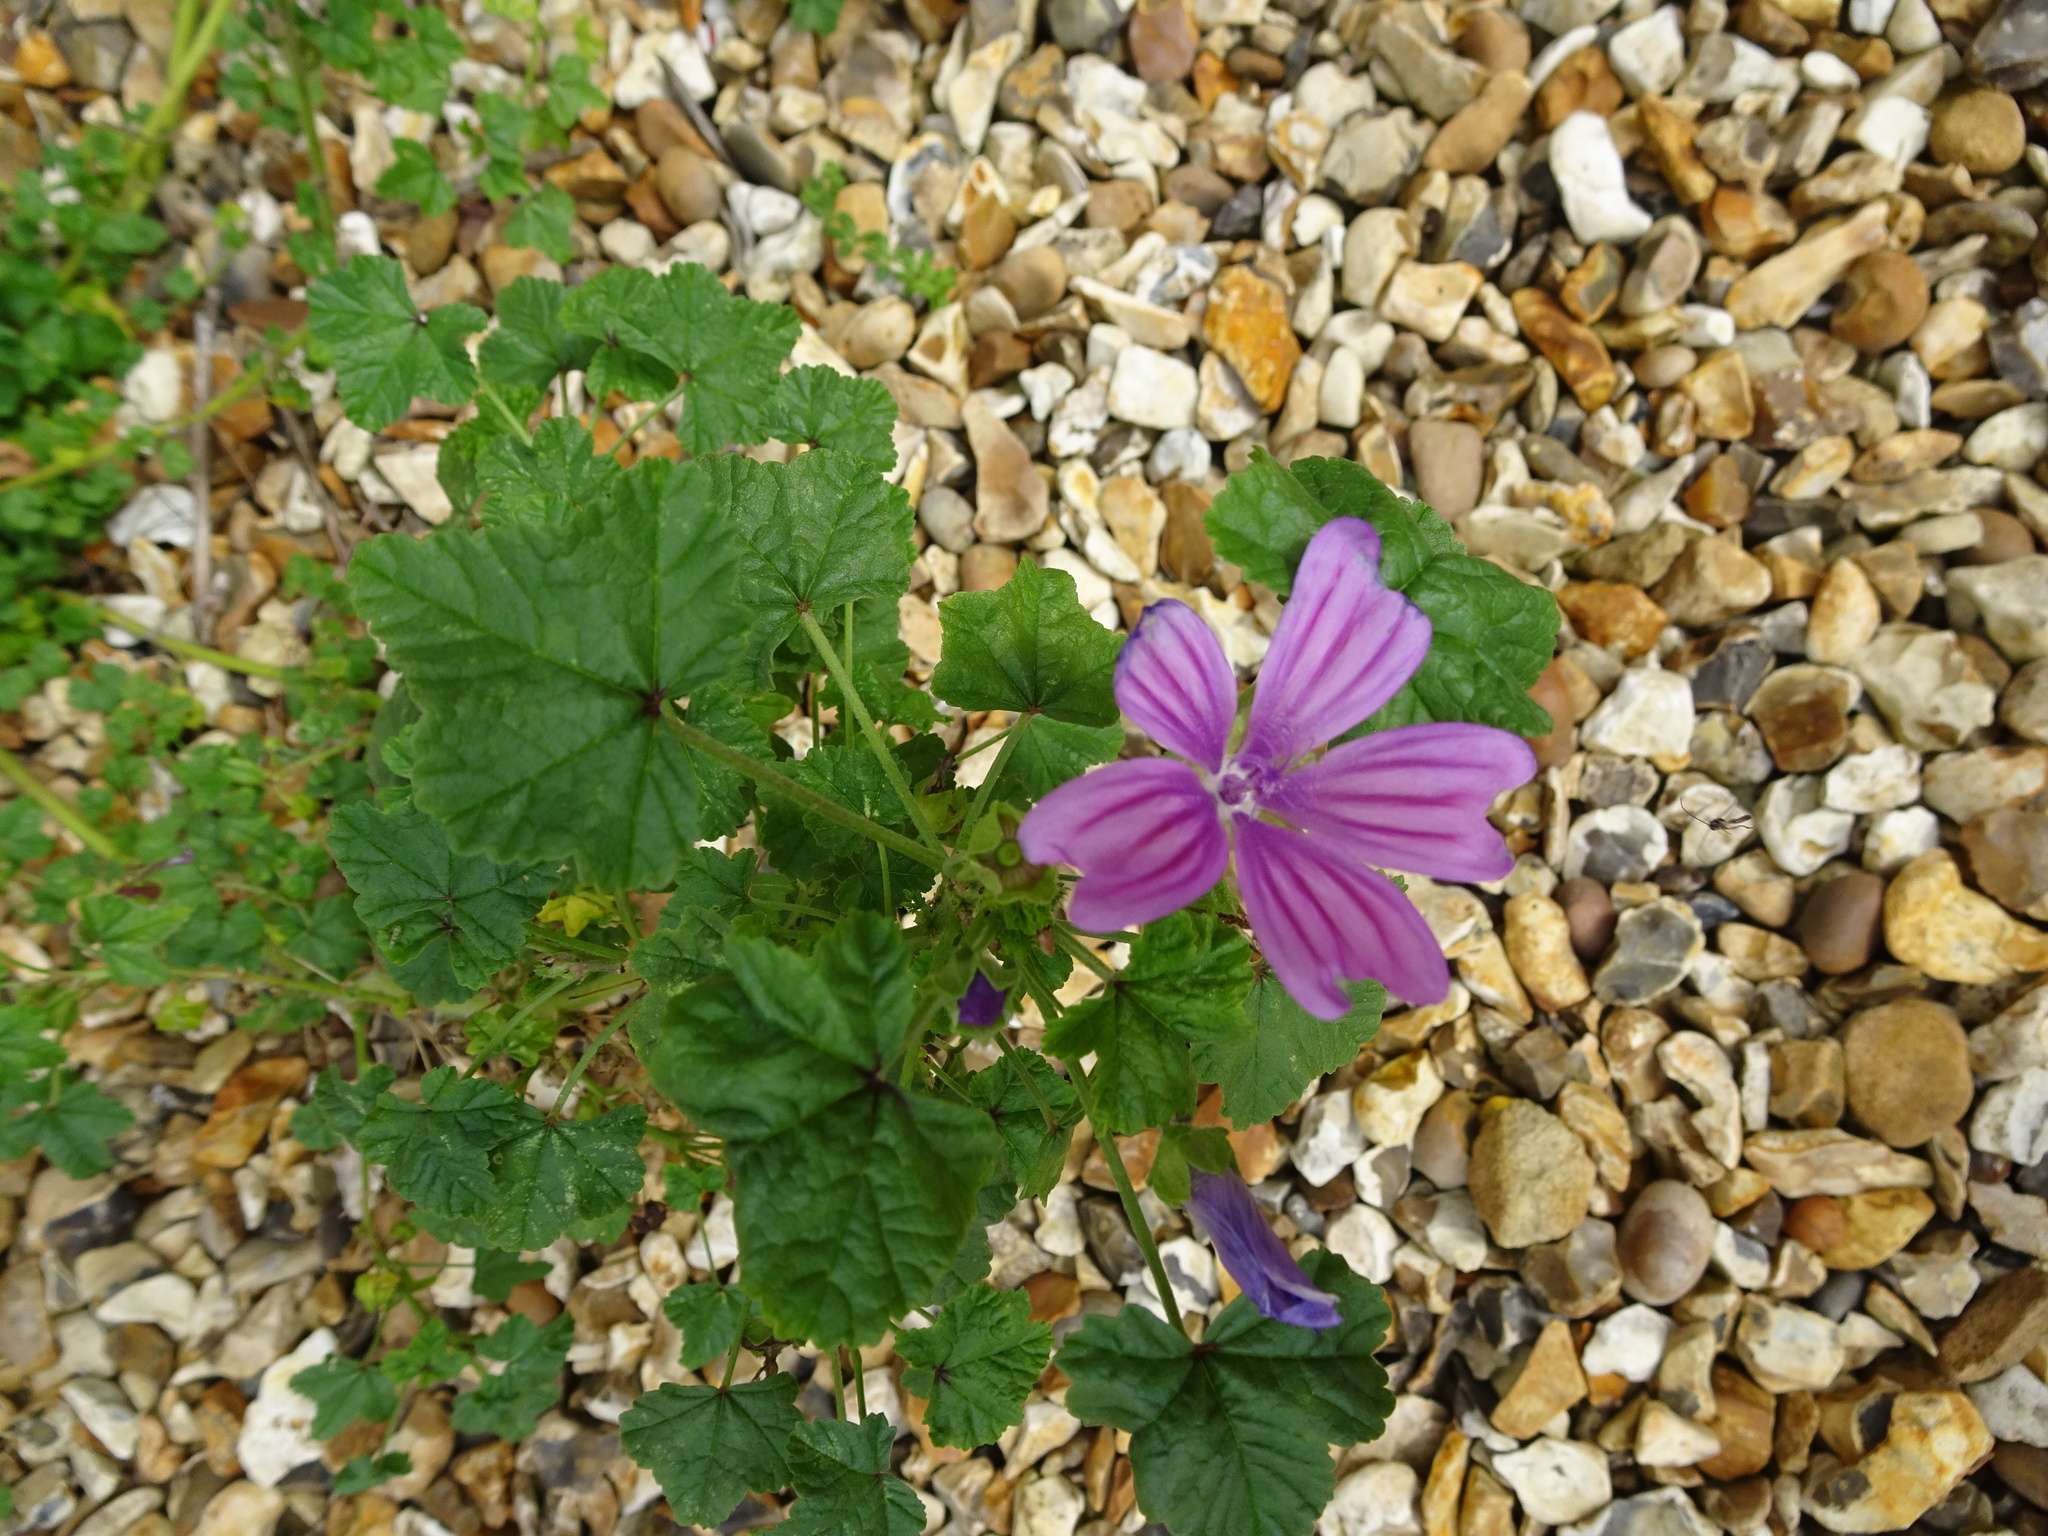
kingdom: Plantae
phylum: Tracheophyta
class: Magnoliopsida
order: Malvales
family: Malvaceae
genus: Malva
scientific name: Malva sylvestris
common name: Common mallow
